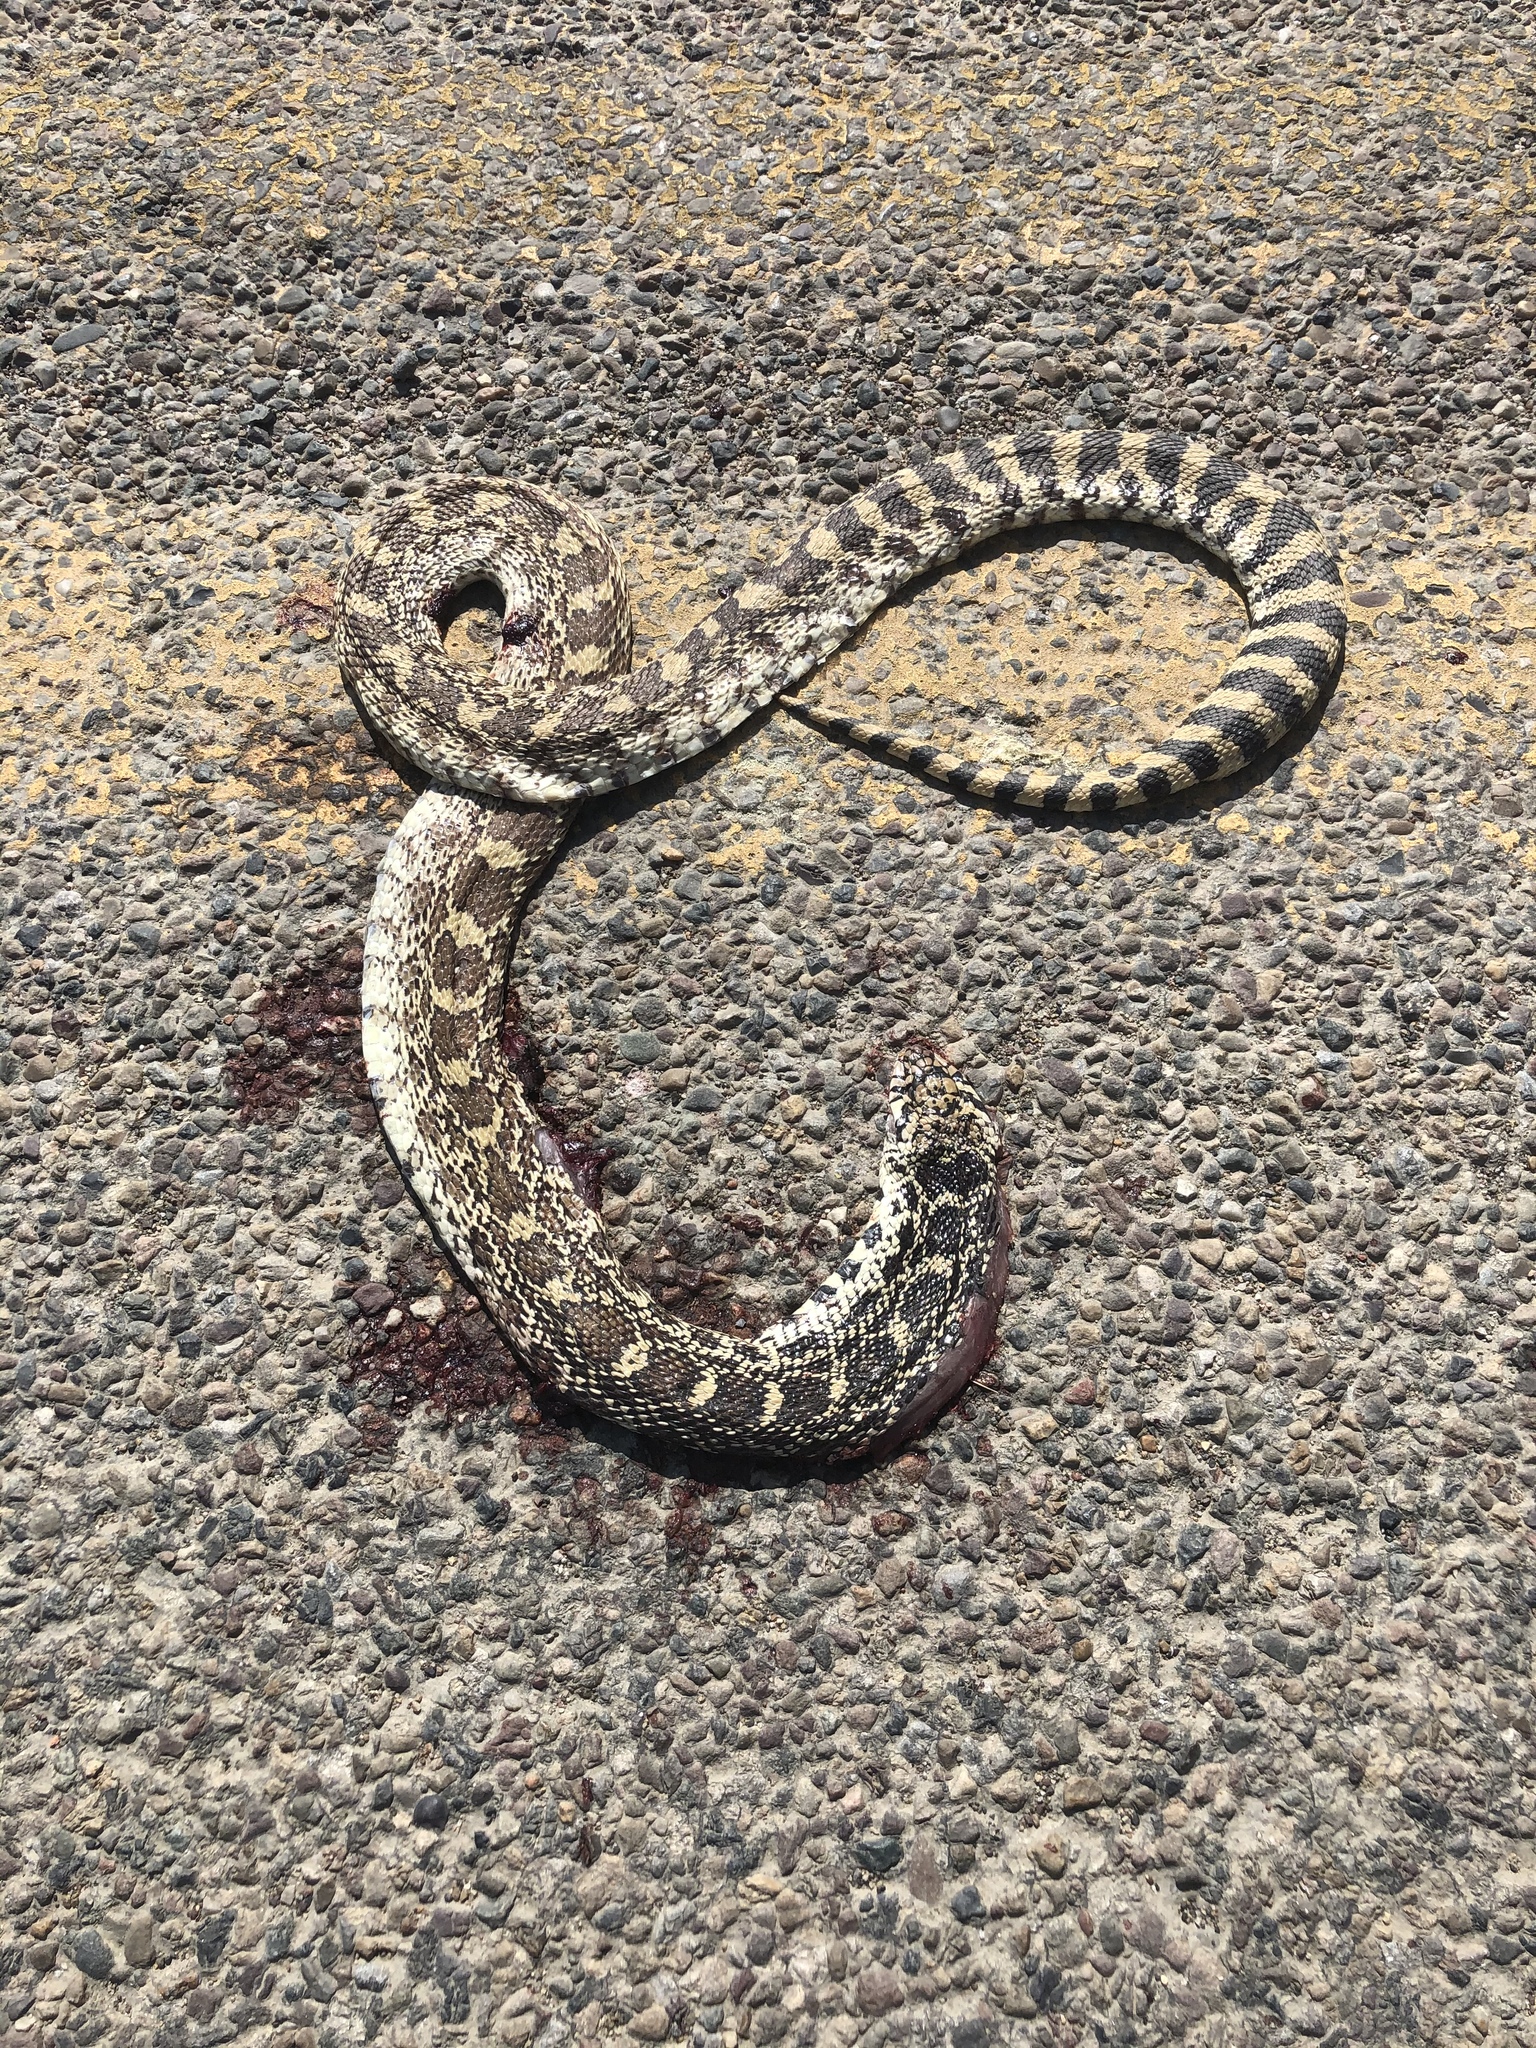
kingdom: Animalia
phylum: Chordata
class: Squamata
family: Colubridae
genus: Pituophis
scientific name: Pituophis catenifer
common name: Gopher snake
